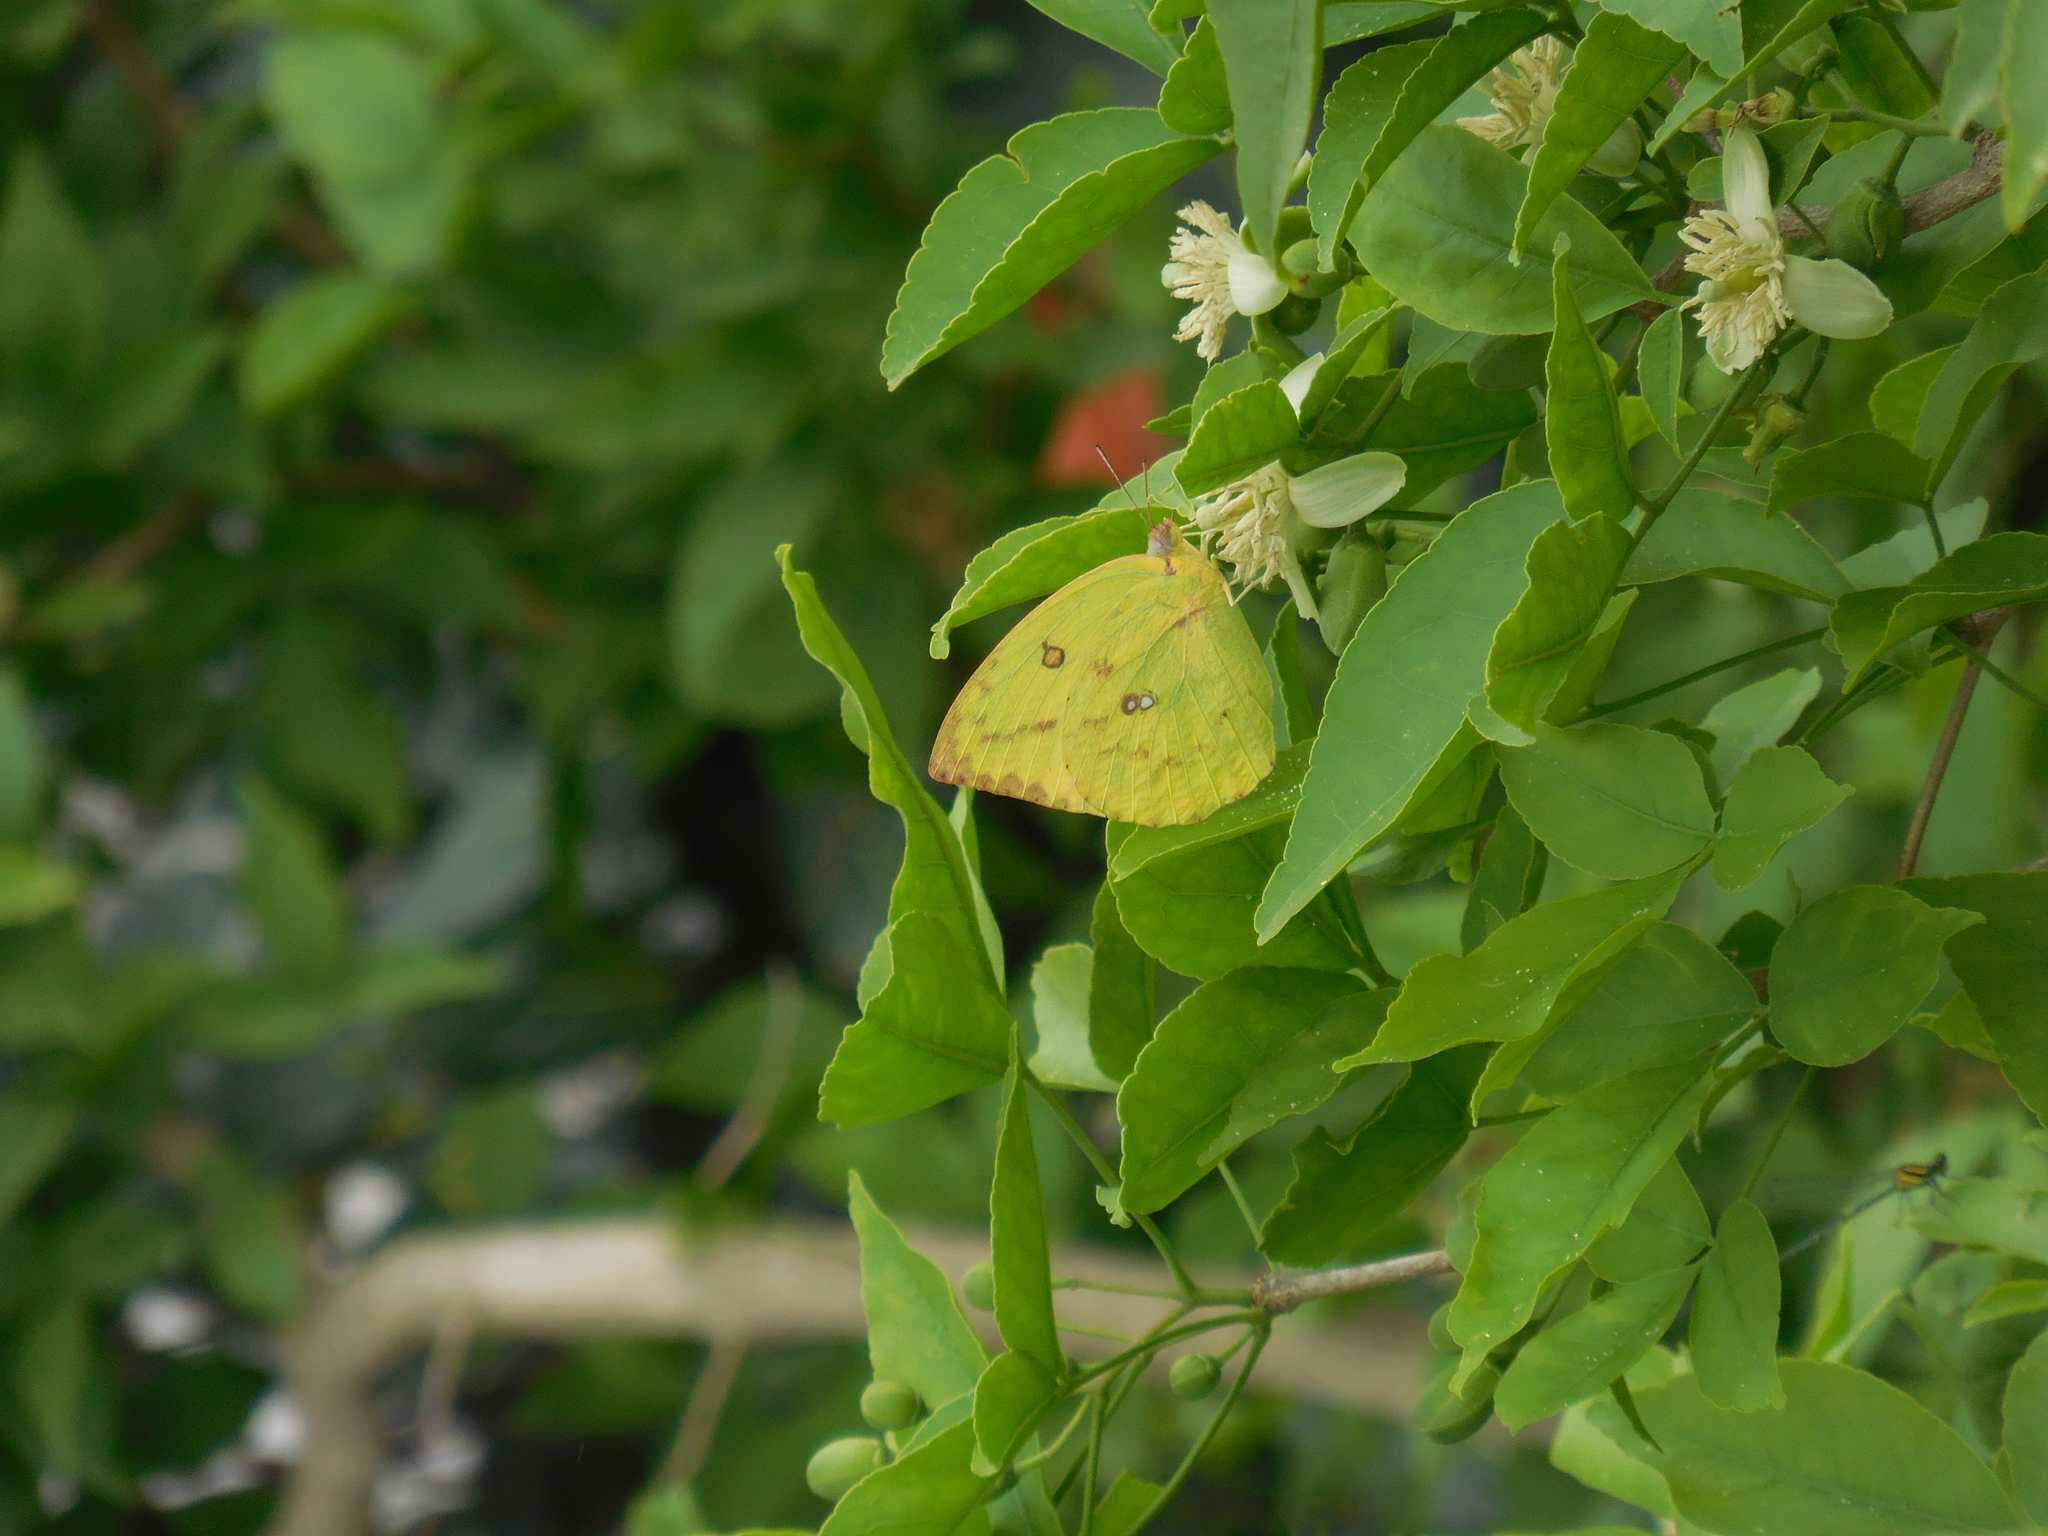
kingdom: Animalia
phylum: Arthropoda
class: Insecta
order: Lepidoptera
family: Pieridae
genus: Catopsilia
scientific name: Catopsilia pomona
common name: Common emigrant
